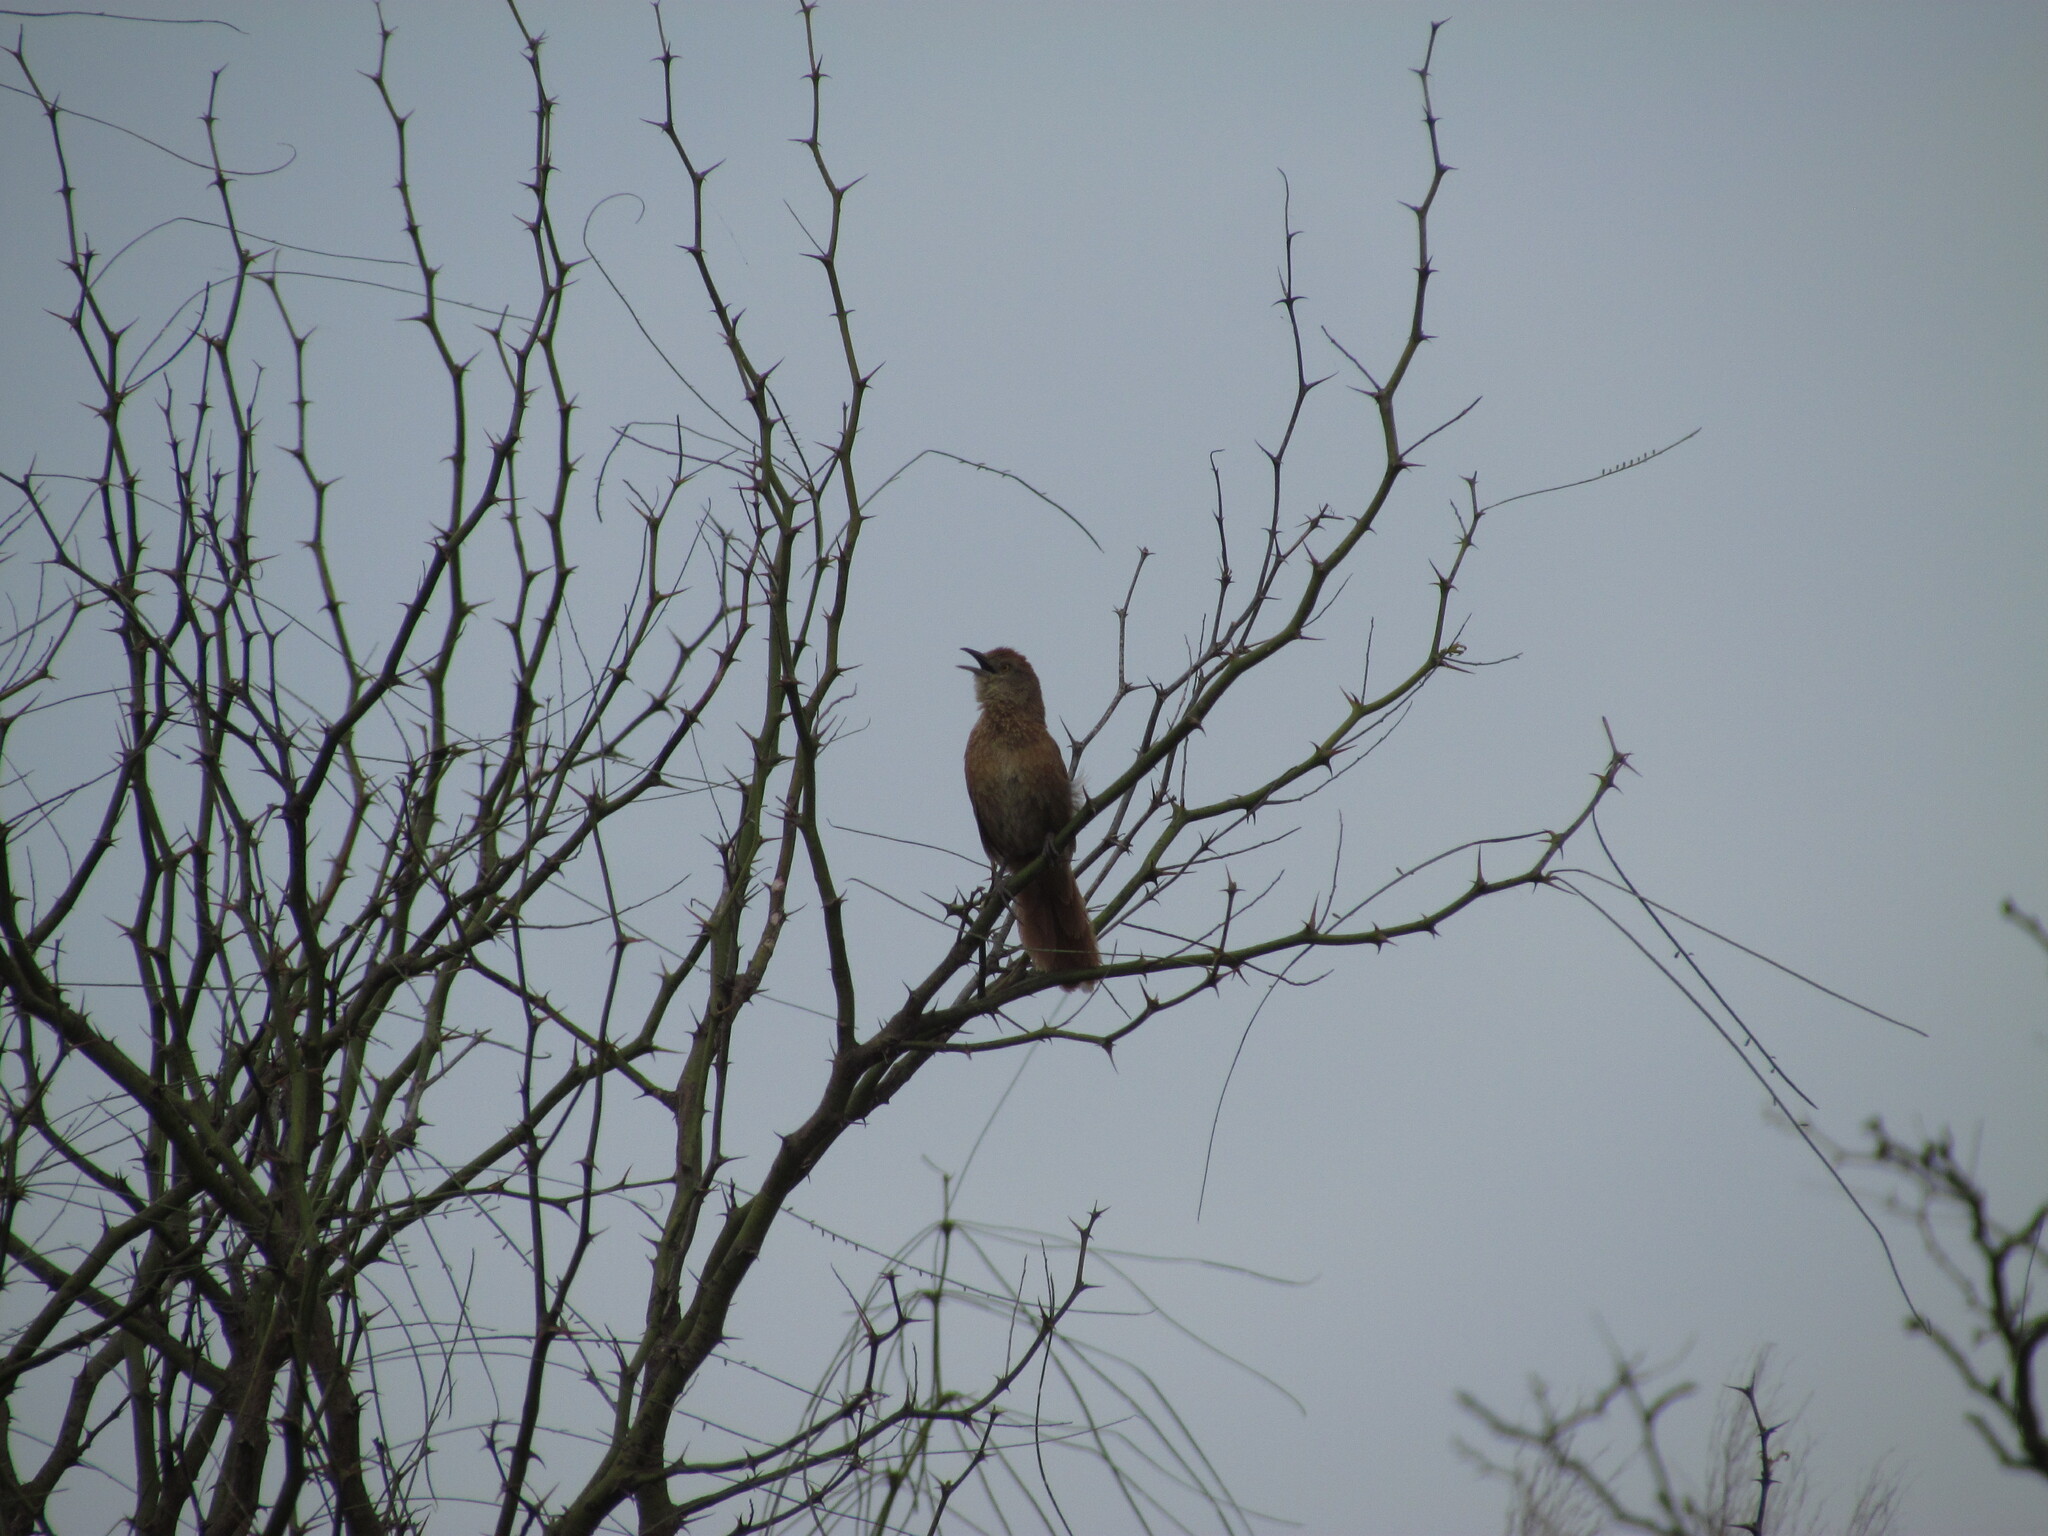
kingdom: Animalia
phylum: Chordata
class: Aves
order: Passeriformes
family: Furnariidae
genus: Phacellodomus
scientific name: Phacellodomus striaticollis
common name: Freckle-breasted thornbird
